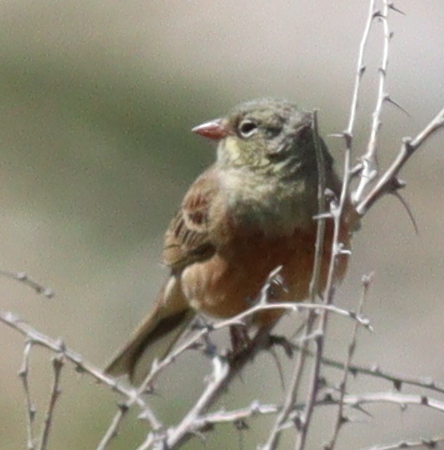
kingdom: Animalia
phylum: Chordata
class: Aves
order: Passeriformes
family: Emberizidae
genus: Emberiza
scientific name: Emberiza hortulana
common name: Ortolan bunting
